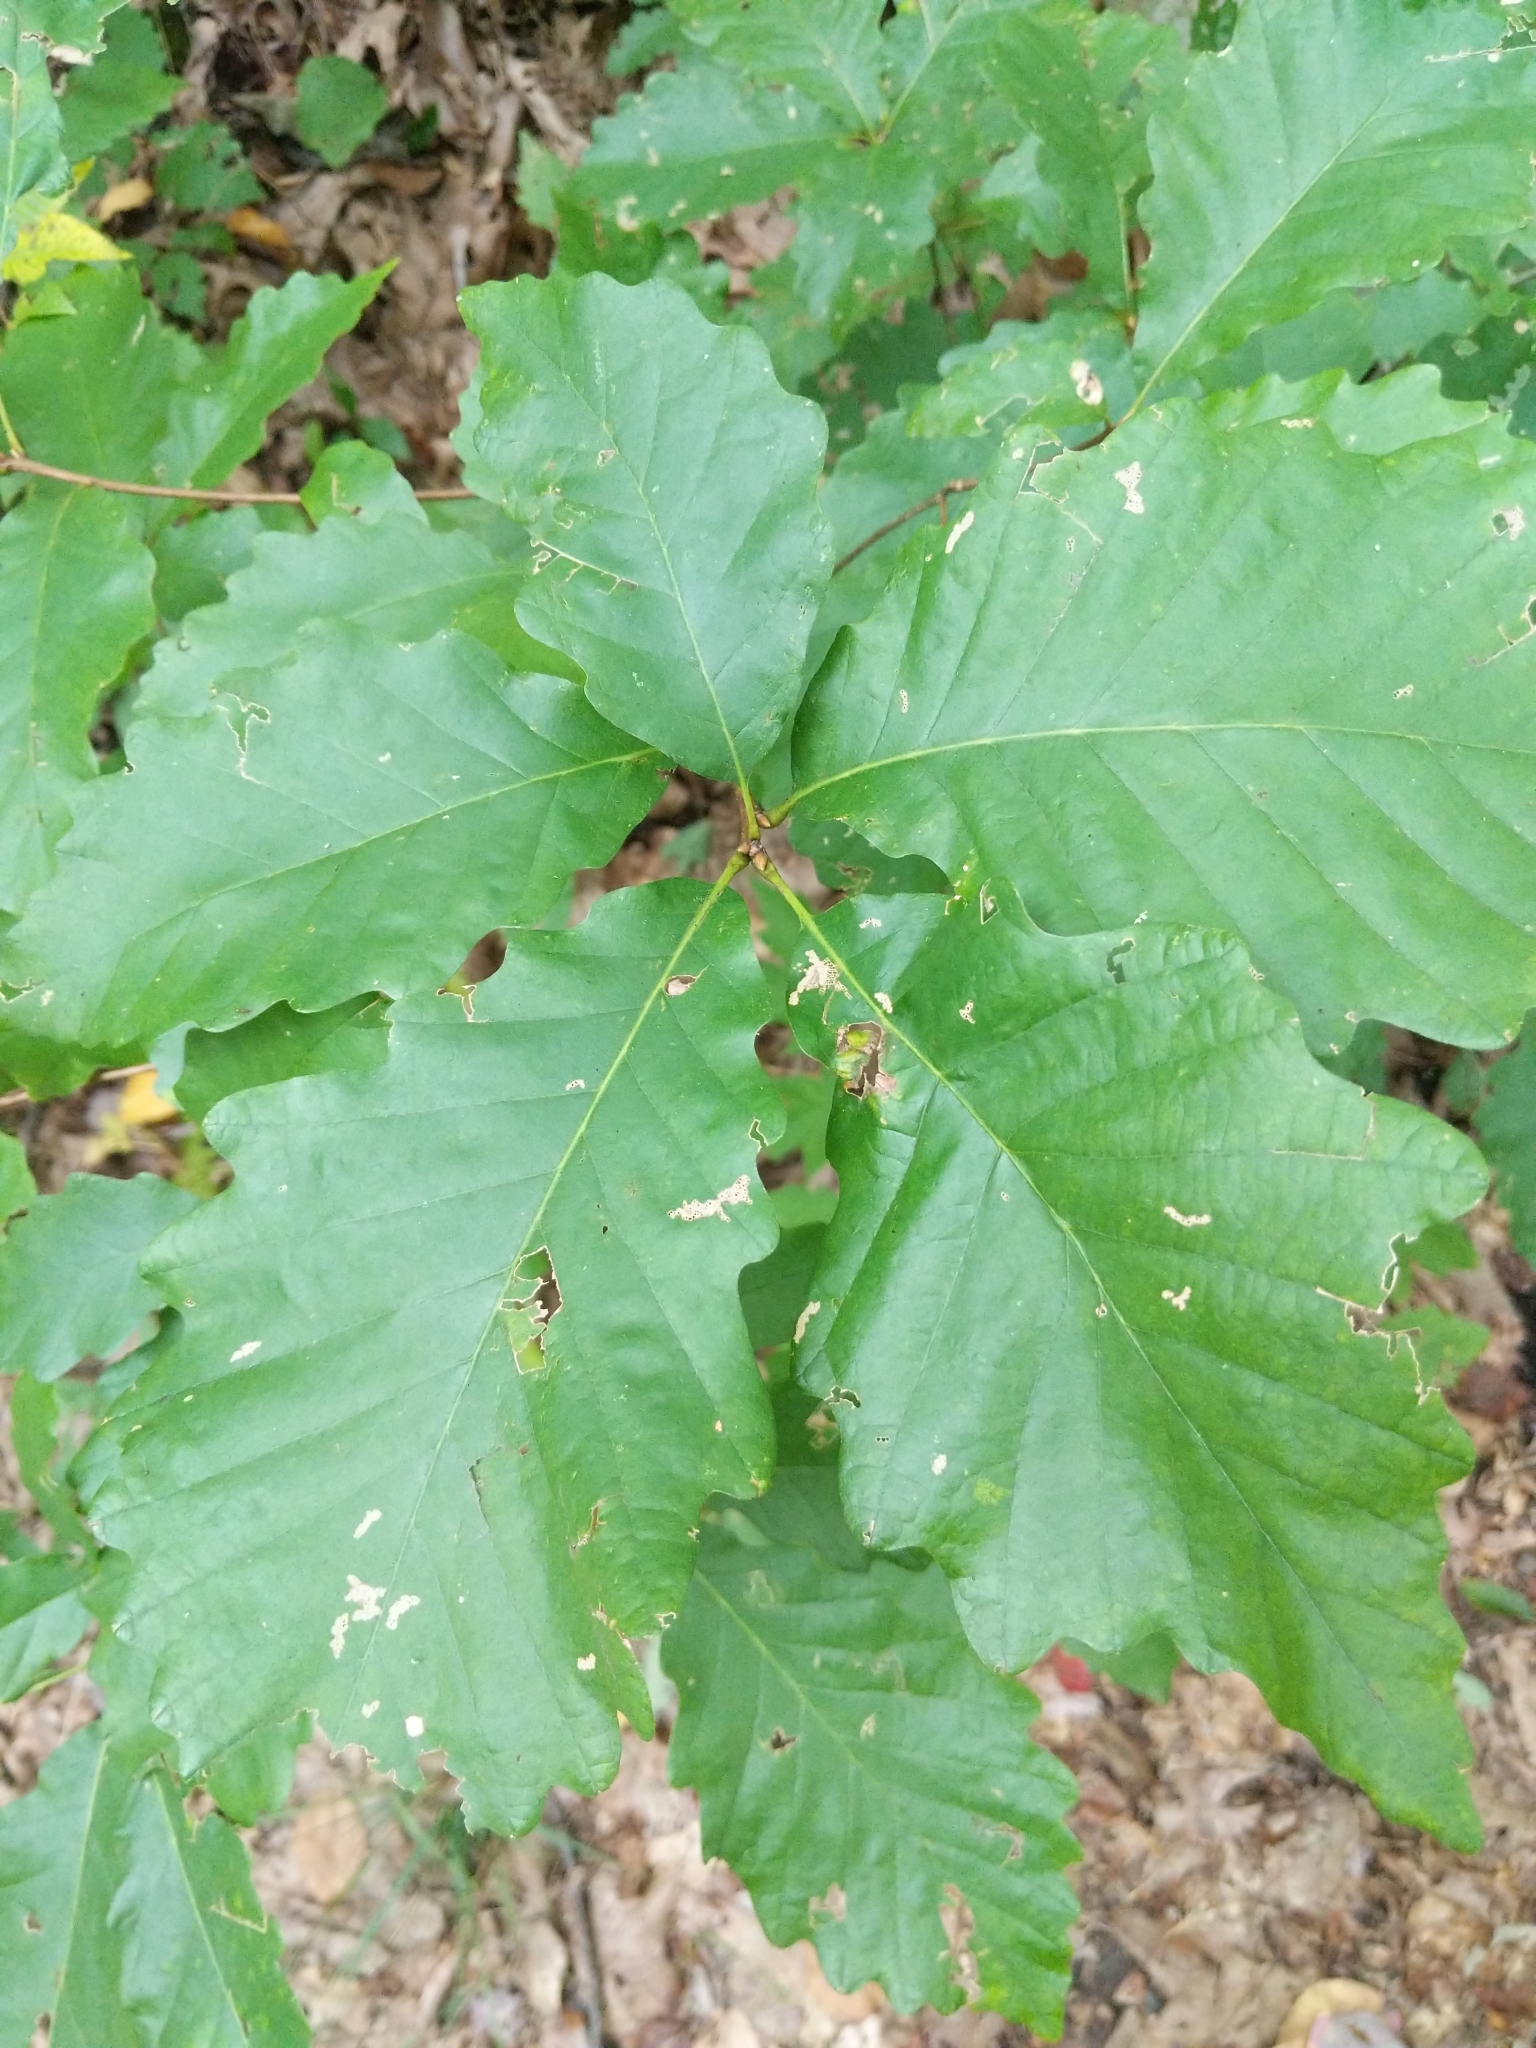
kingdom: Plantae
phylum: Tracheophyta
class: Magnoliopsida
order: Fagales
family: Fagaceae
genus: Quercus
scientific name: Quercus montana
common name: Chestnut oak
